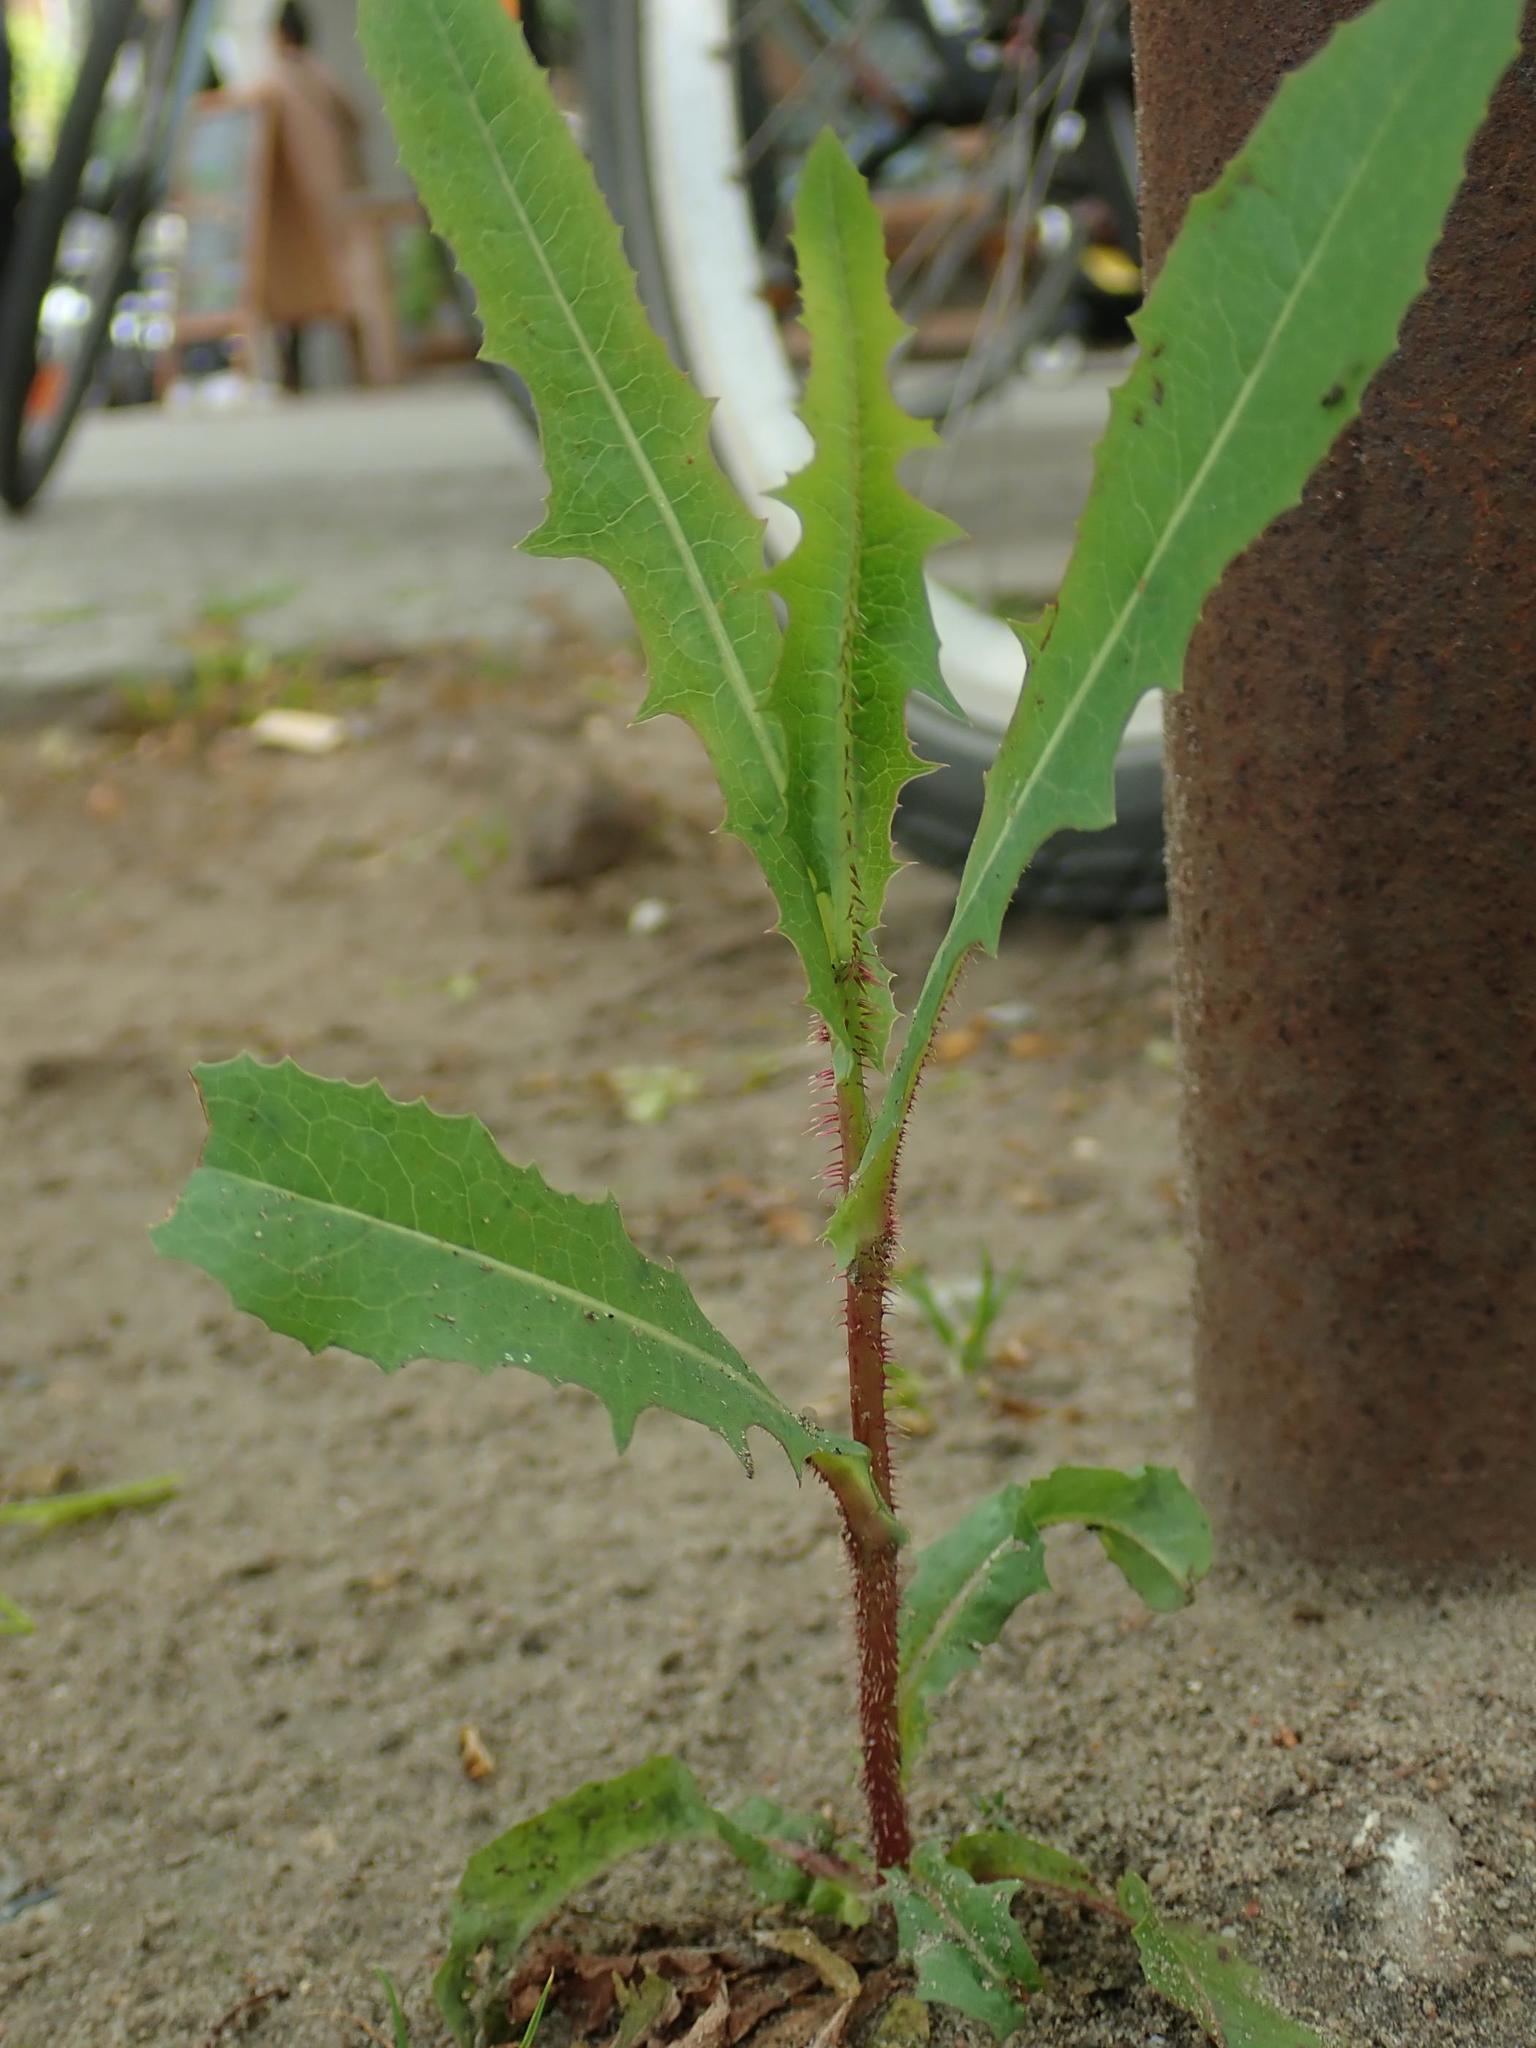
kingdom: Plantae
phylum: Tracheophyta
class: Magnoliopsida
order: Asterales
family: Asteraceae
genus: Lactuca
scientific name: Lactuca serriola
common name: Prickly lettuce
